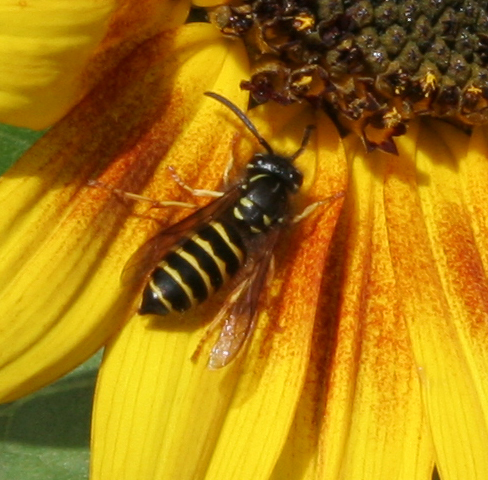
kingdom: Animalia
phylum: Arthropoda
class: Insecta
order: Hymenoptera
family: Vespidae
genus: Vespula
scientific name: Vespula alascensis
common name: Alaska yellowjacket
